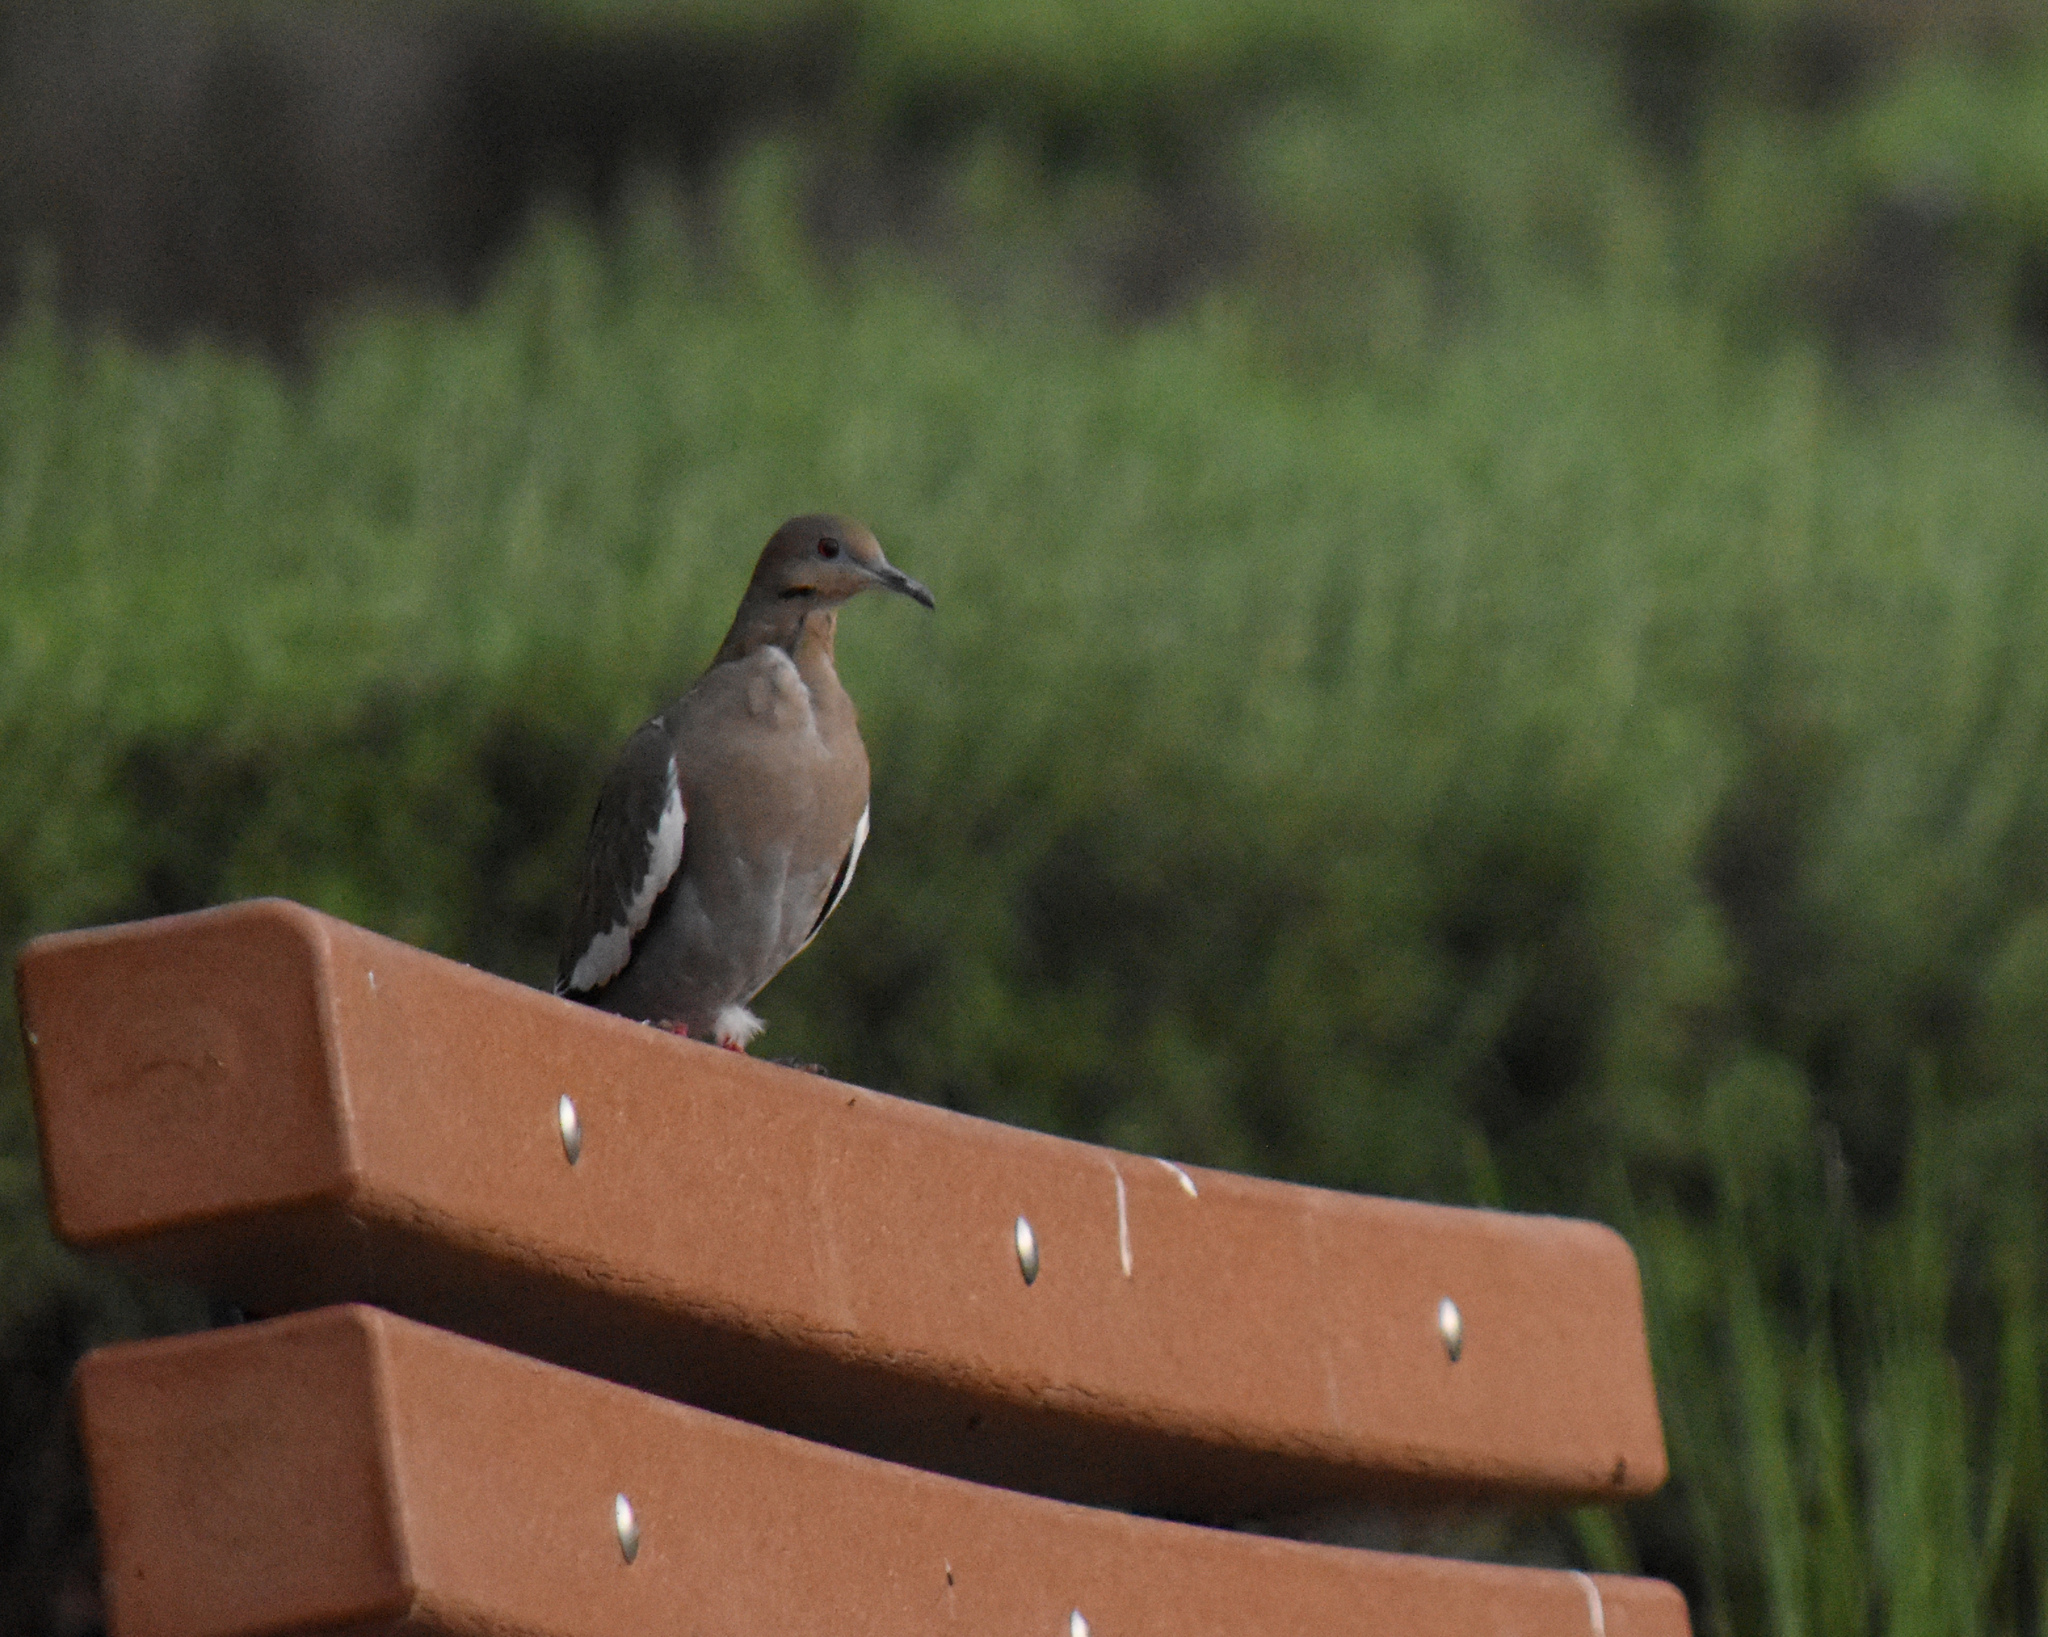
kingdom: Animalia
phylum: Chordata
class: Aves
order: Columbiformes
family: Columbidae
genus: Zenaida
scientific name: Zenaida asiatica
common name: White-winged dove
